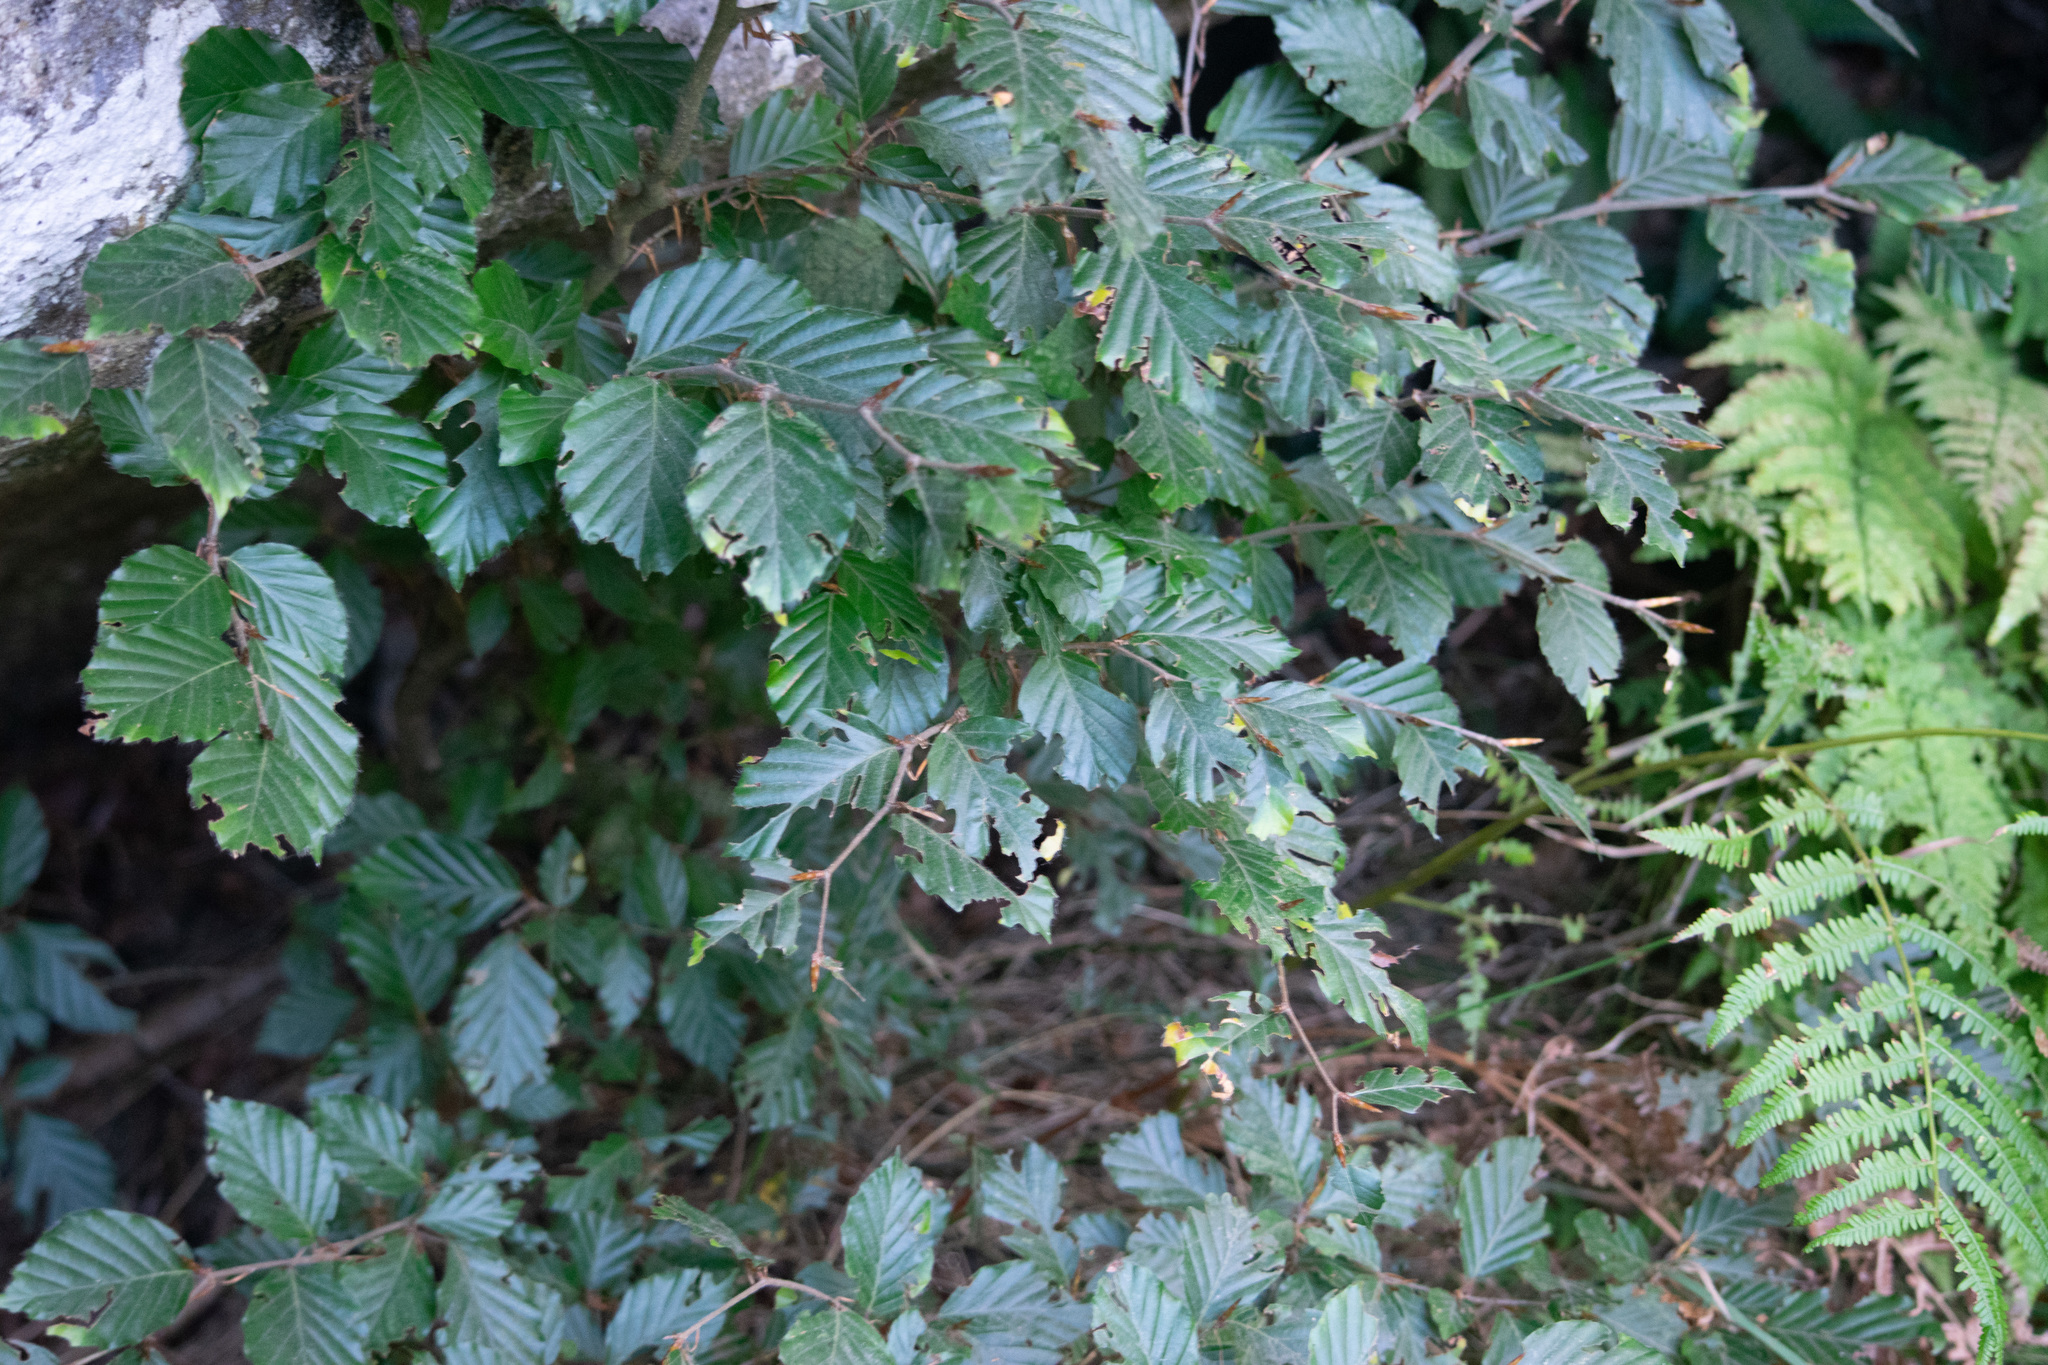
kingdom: Plantae
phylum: Tracheophyta
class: Magnoliopsida
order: Fagales
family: Fagaceae
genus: Fagus
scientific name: Fagus sylvatica
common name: Beech
